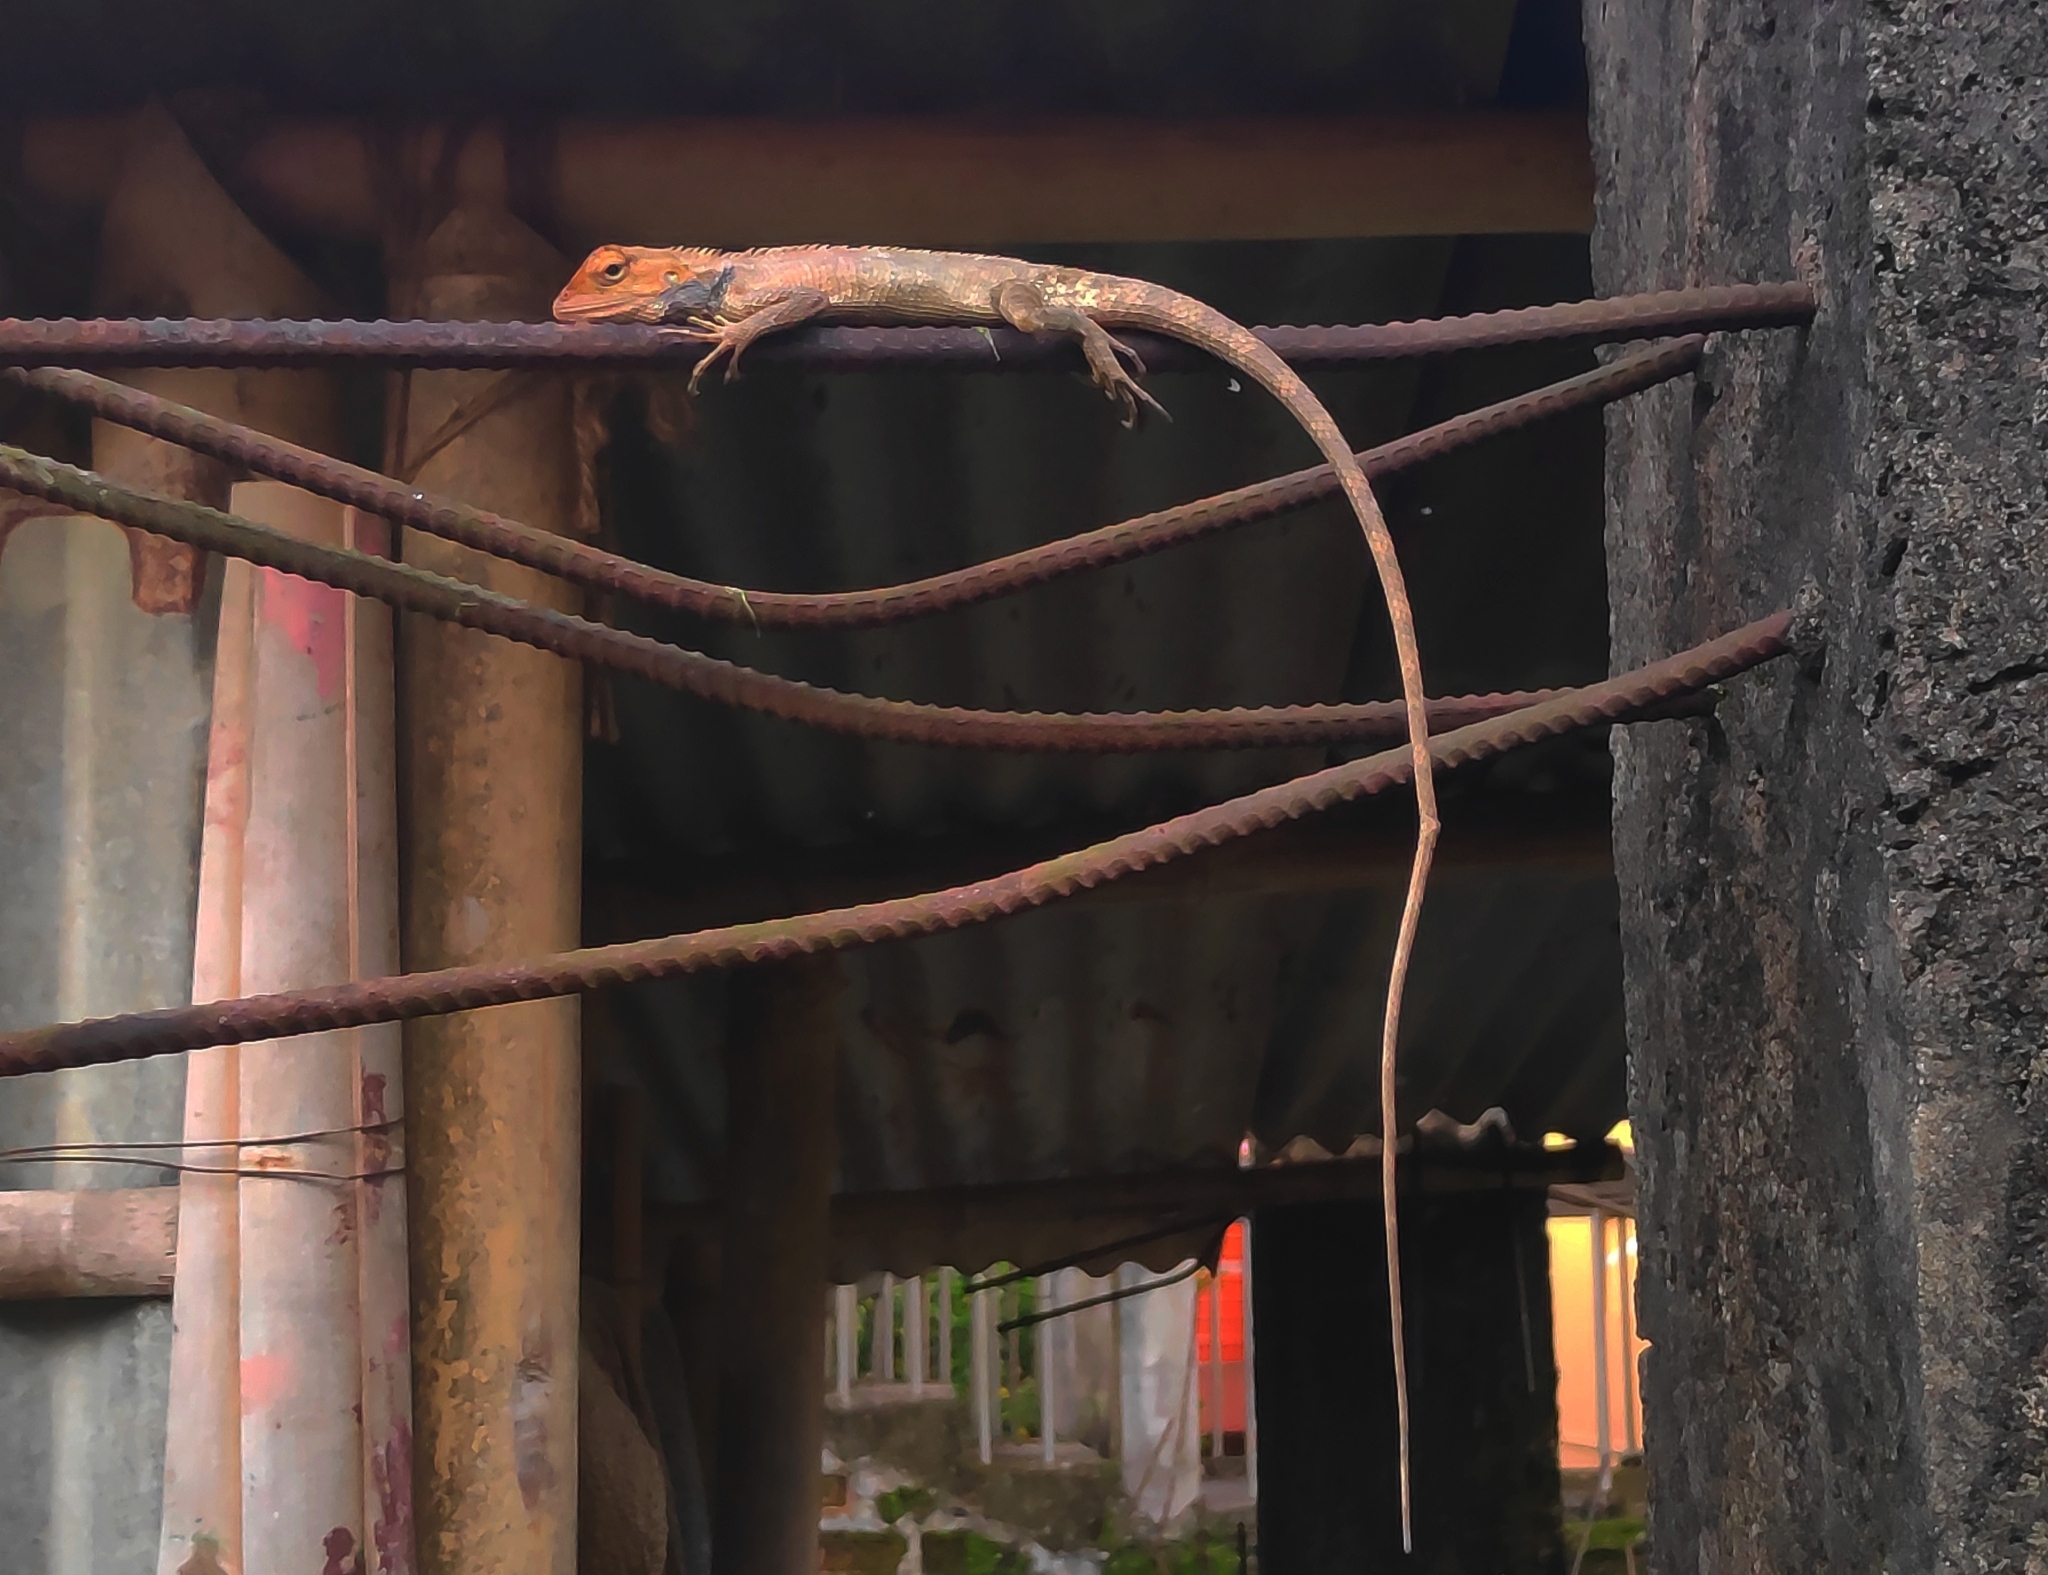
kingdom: Animalia
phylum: Chordata
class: Squamata
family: Agamidae
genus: Calotes
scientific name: Calotes versicolor
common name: Oriental garden lizard
